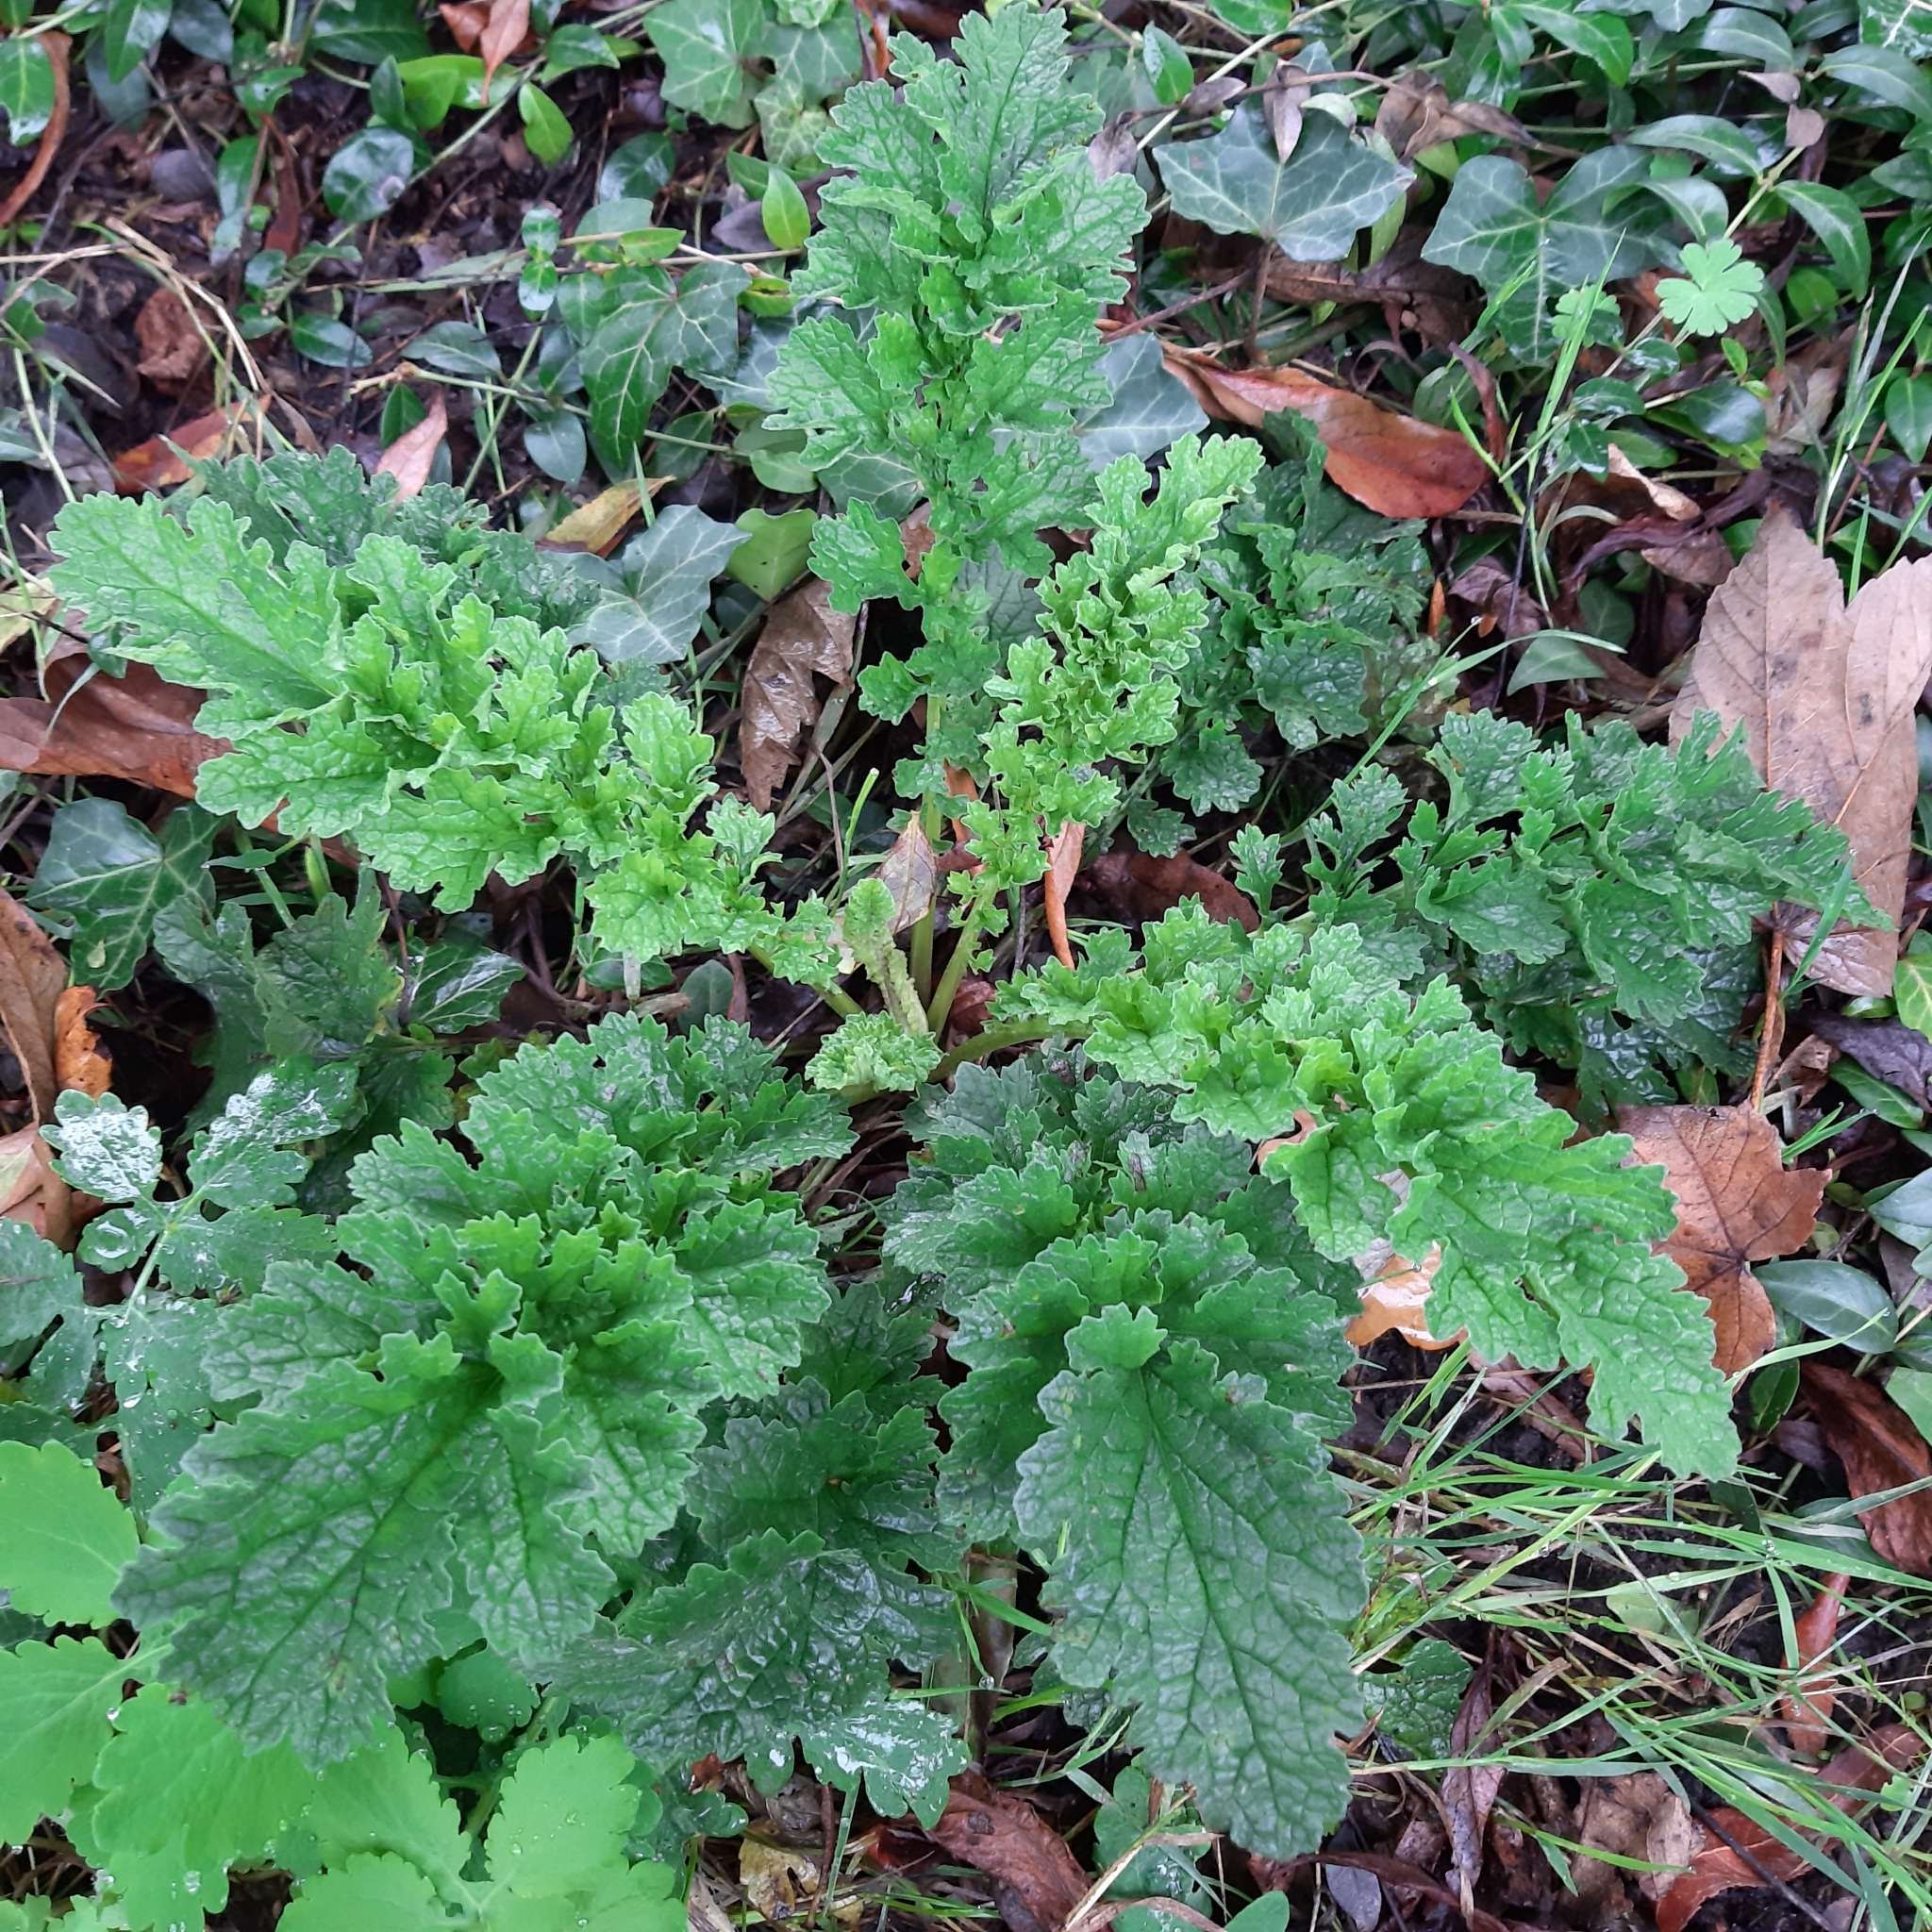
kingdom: Plantae
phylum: Tracheophyta
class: Magnoliopsida
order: Asterales
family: Asteraceae
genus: Jacobaea
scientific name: Jacobaea vulgaris
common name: Stinking willie
